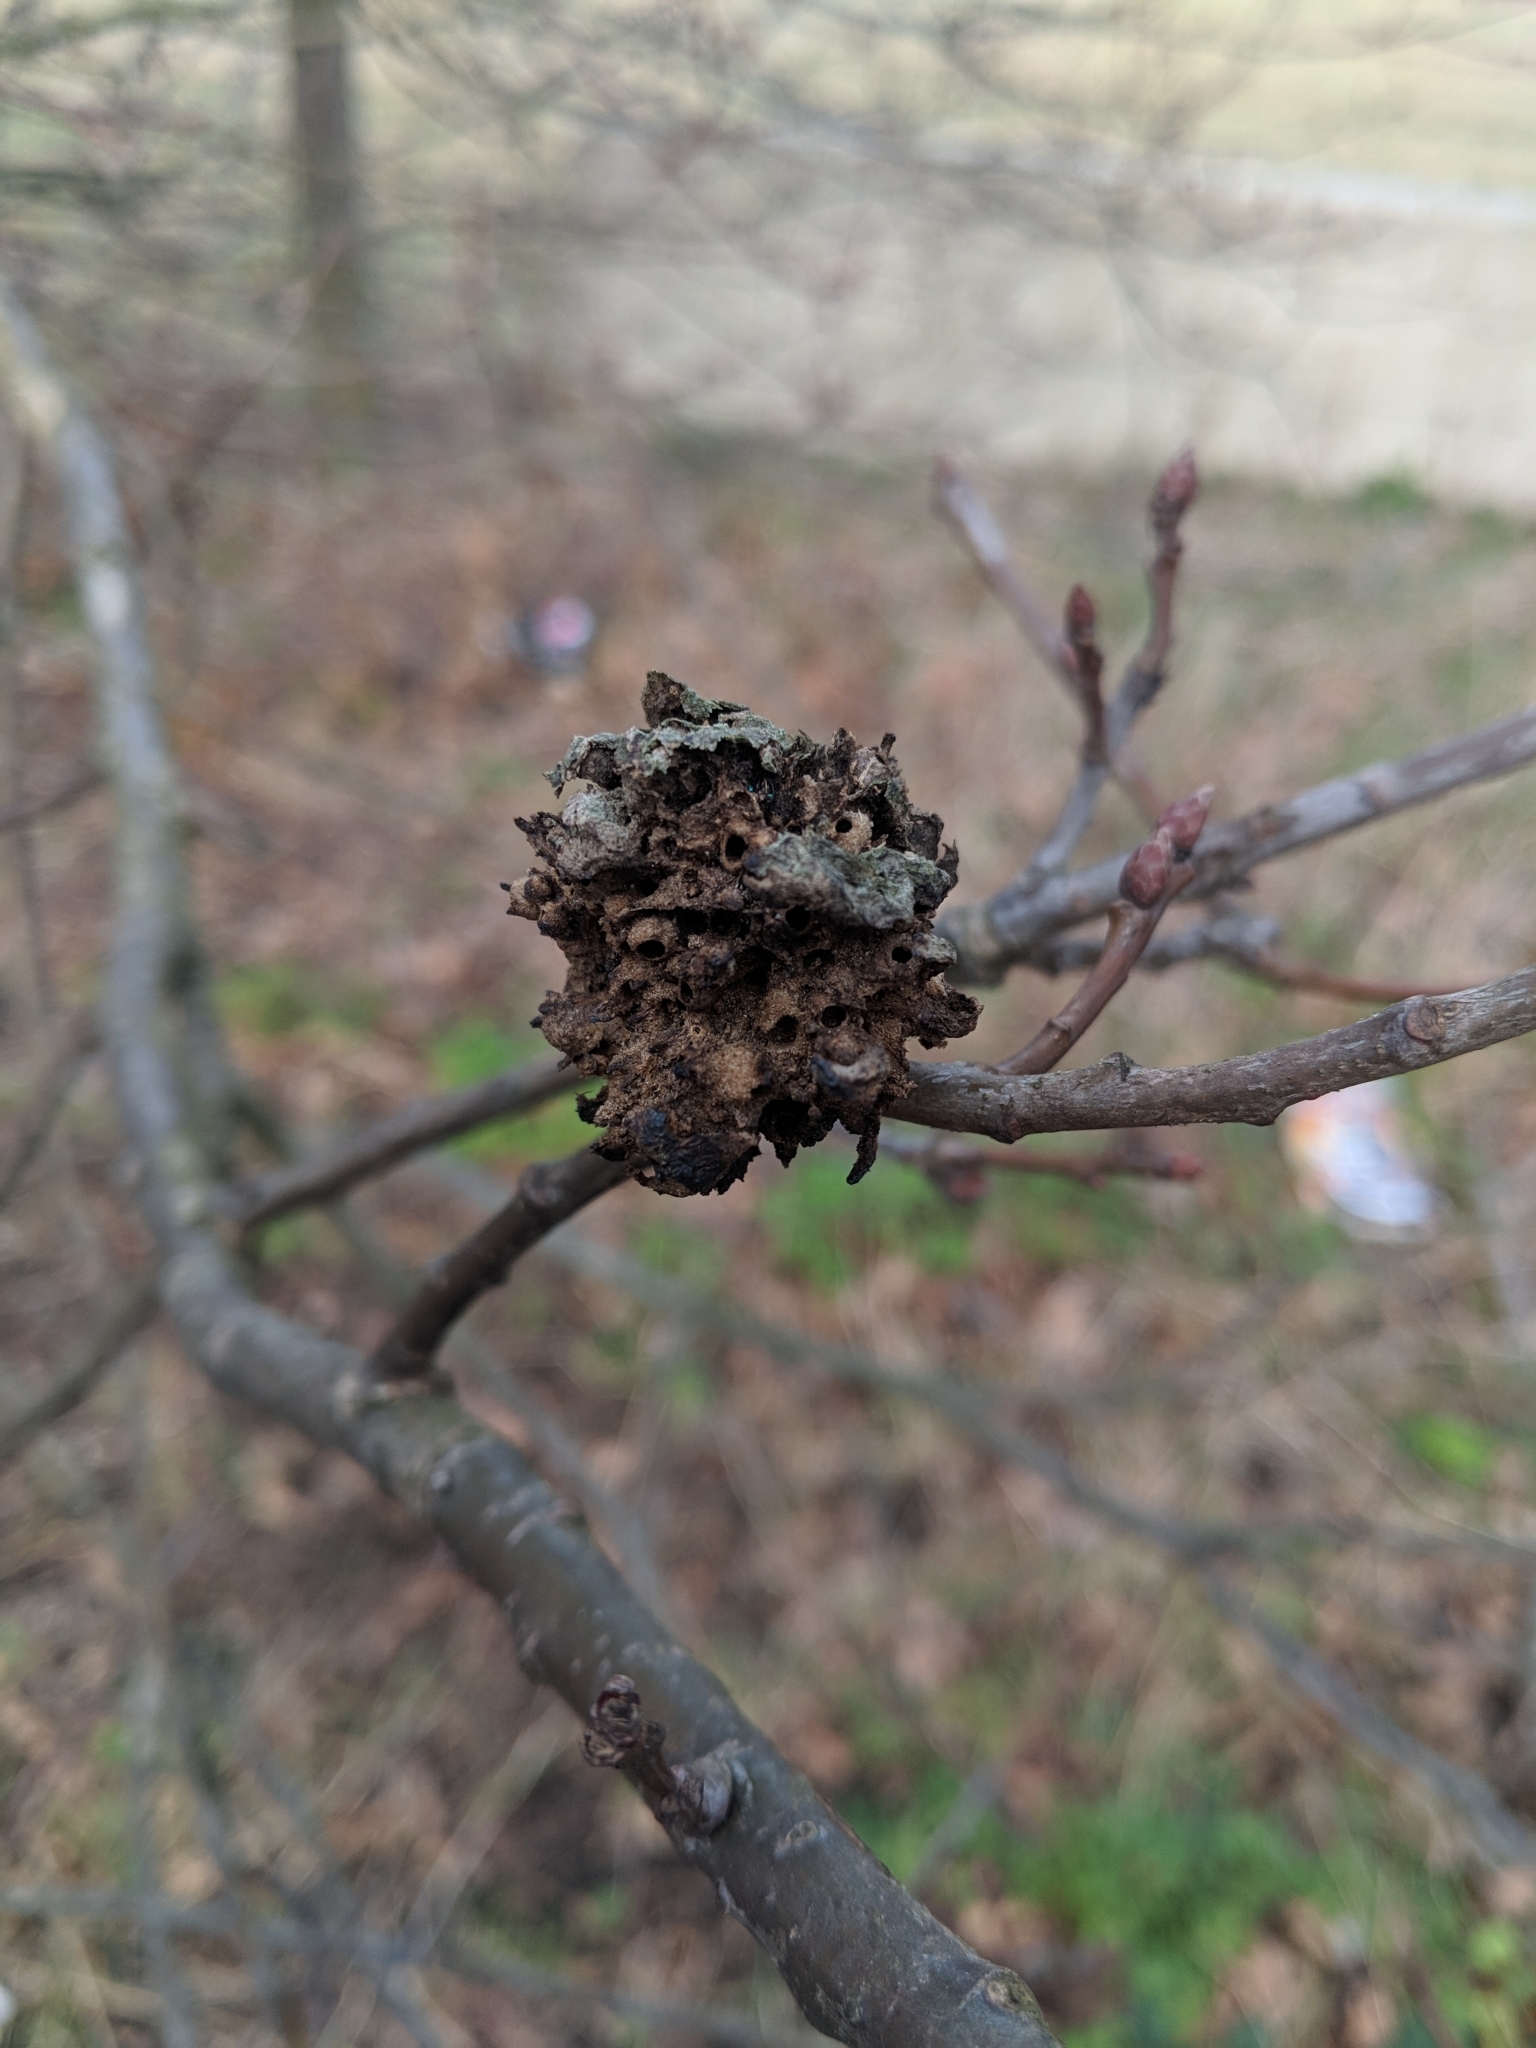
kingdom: Animalia
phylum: Arthropoda
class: Insecta
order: Hymenoptera
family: Cynipidae
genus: Biorhiza
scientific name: Biorhiza pallida
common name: Oak apple
